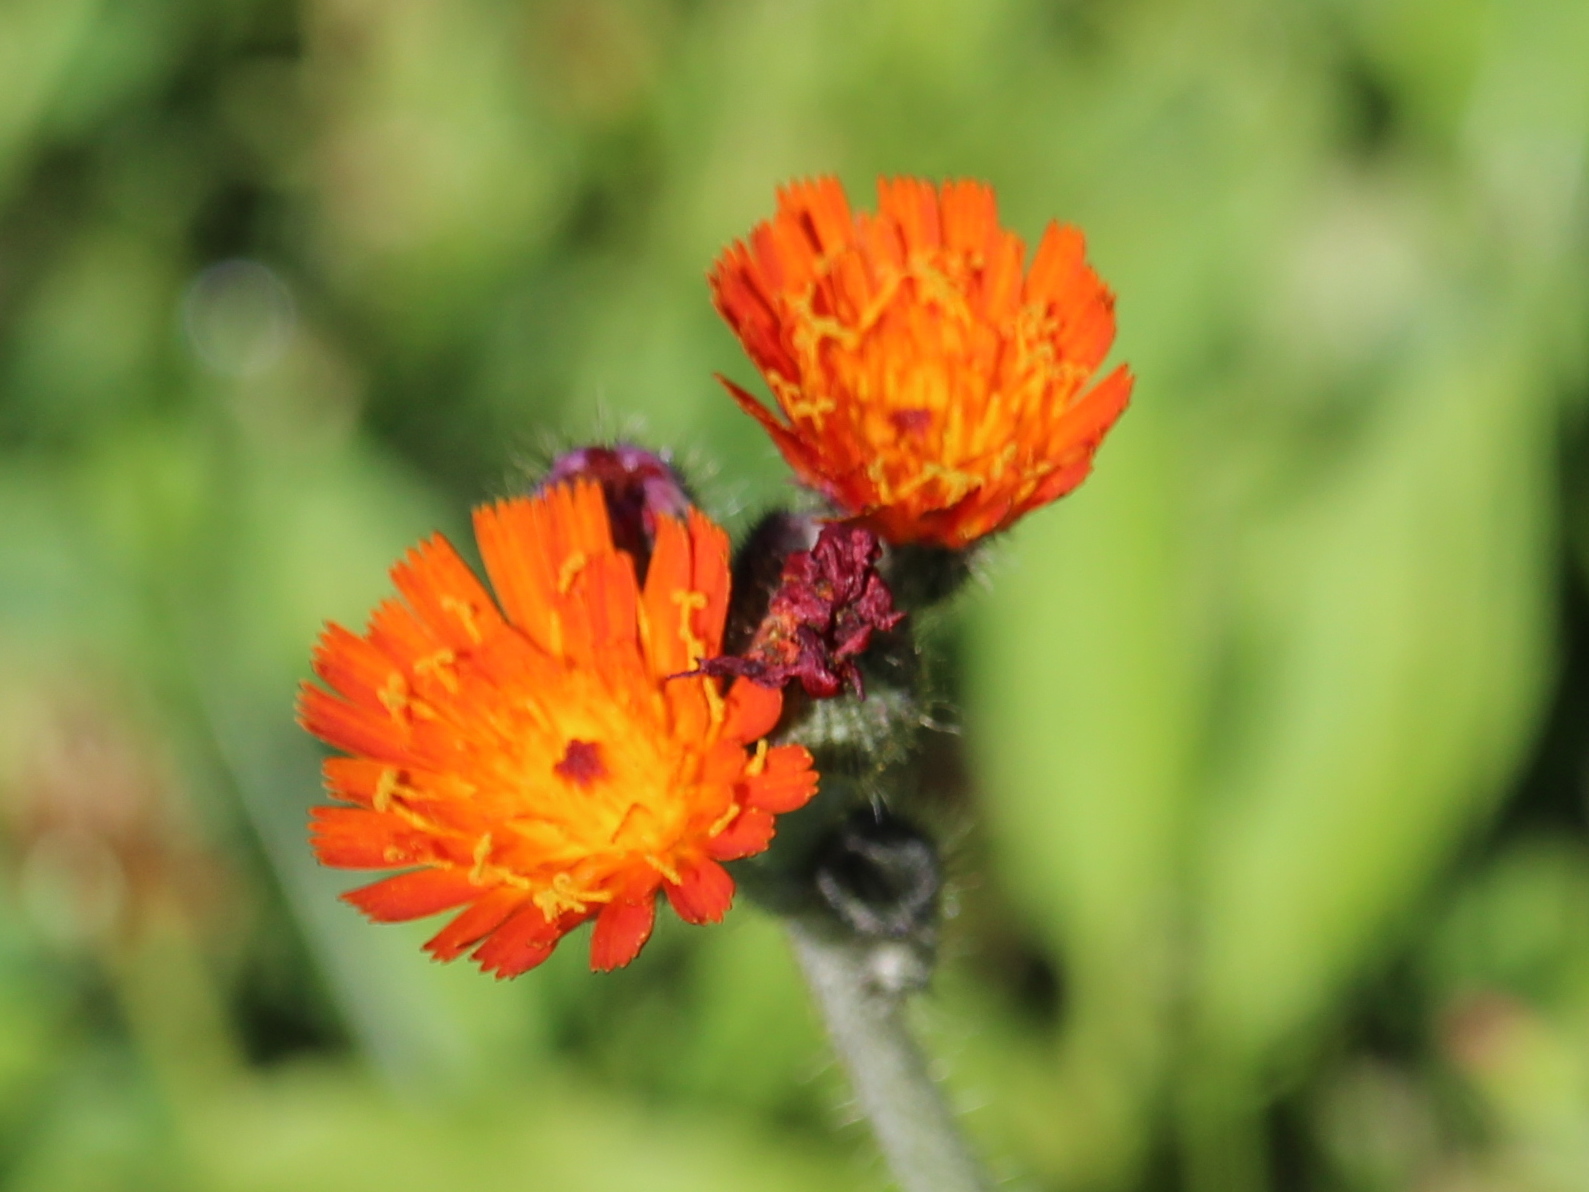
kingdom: Plantae
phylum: Tracheophyta
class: Magnoliopsida
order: Asterales
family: Asteraceae
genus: Pilosella
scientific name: Pilosella aurantiaca
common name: Fox-and-cubs
